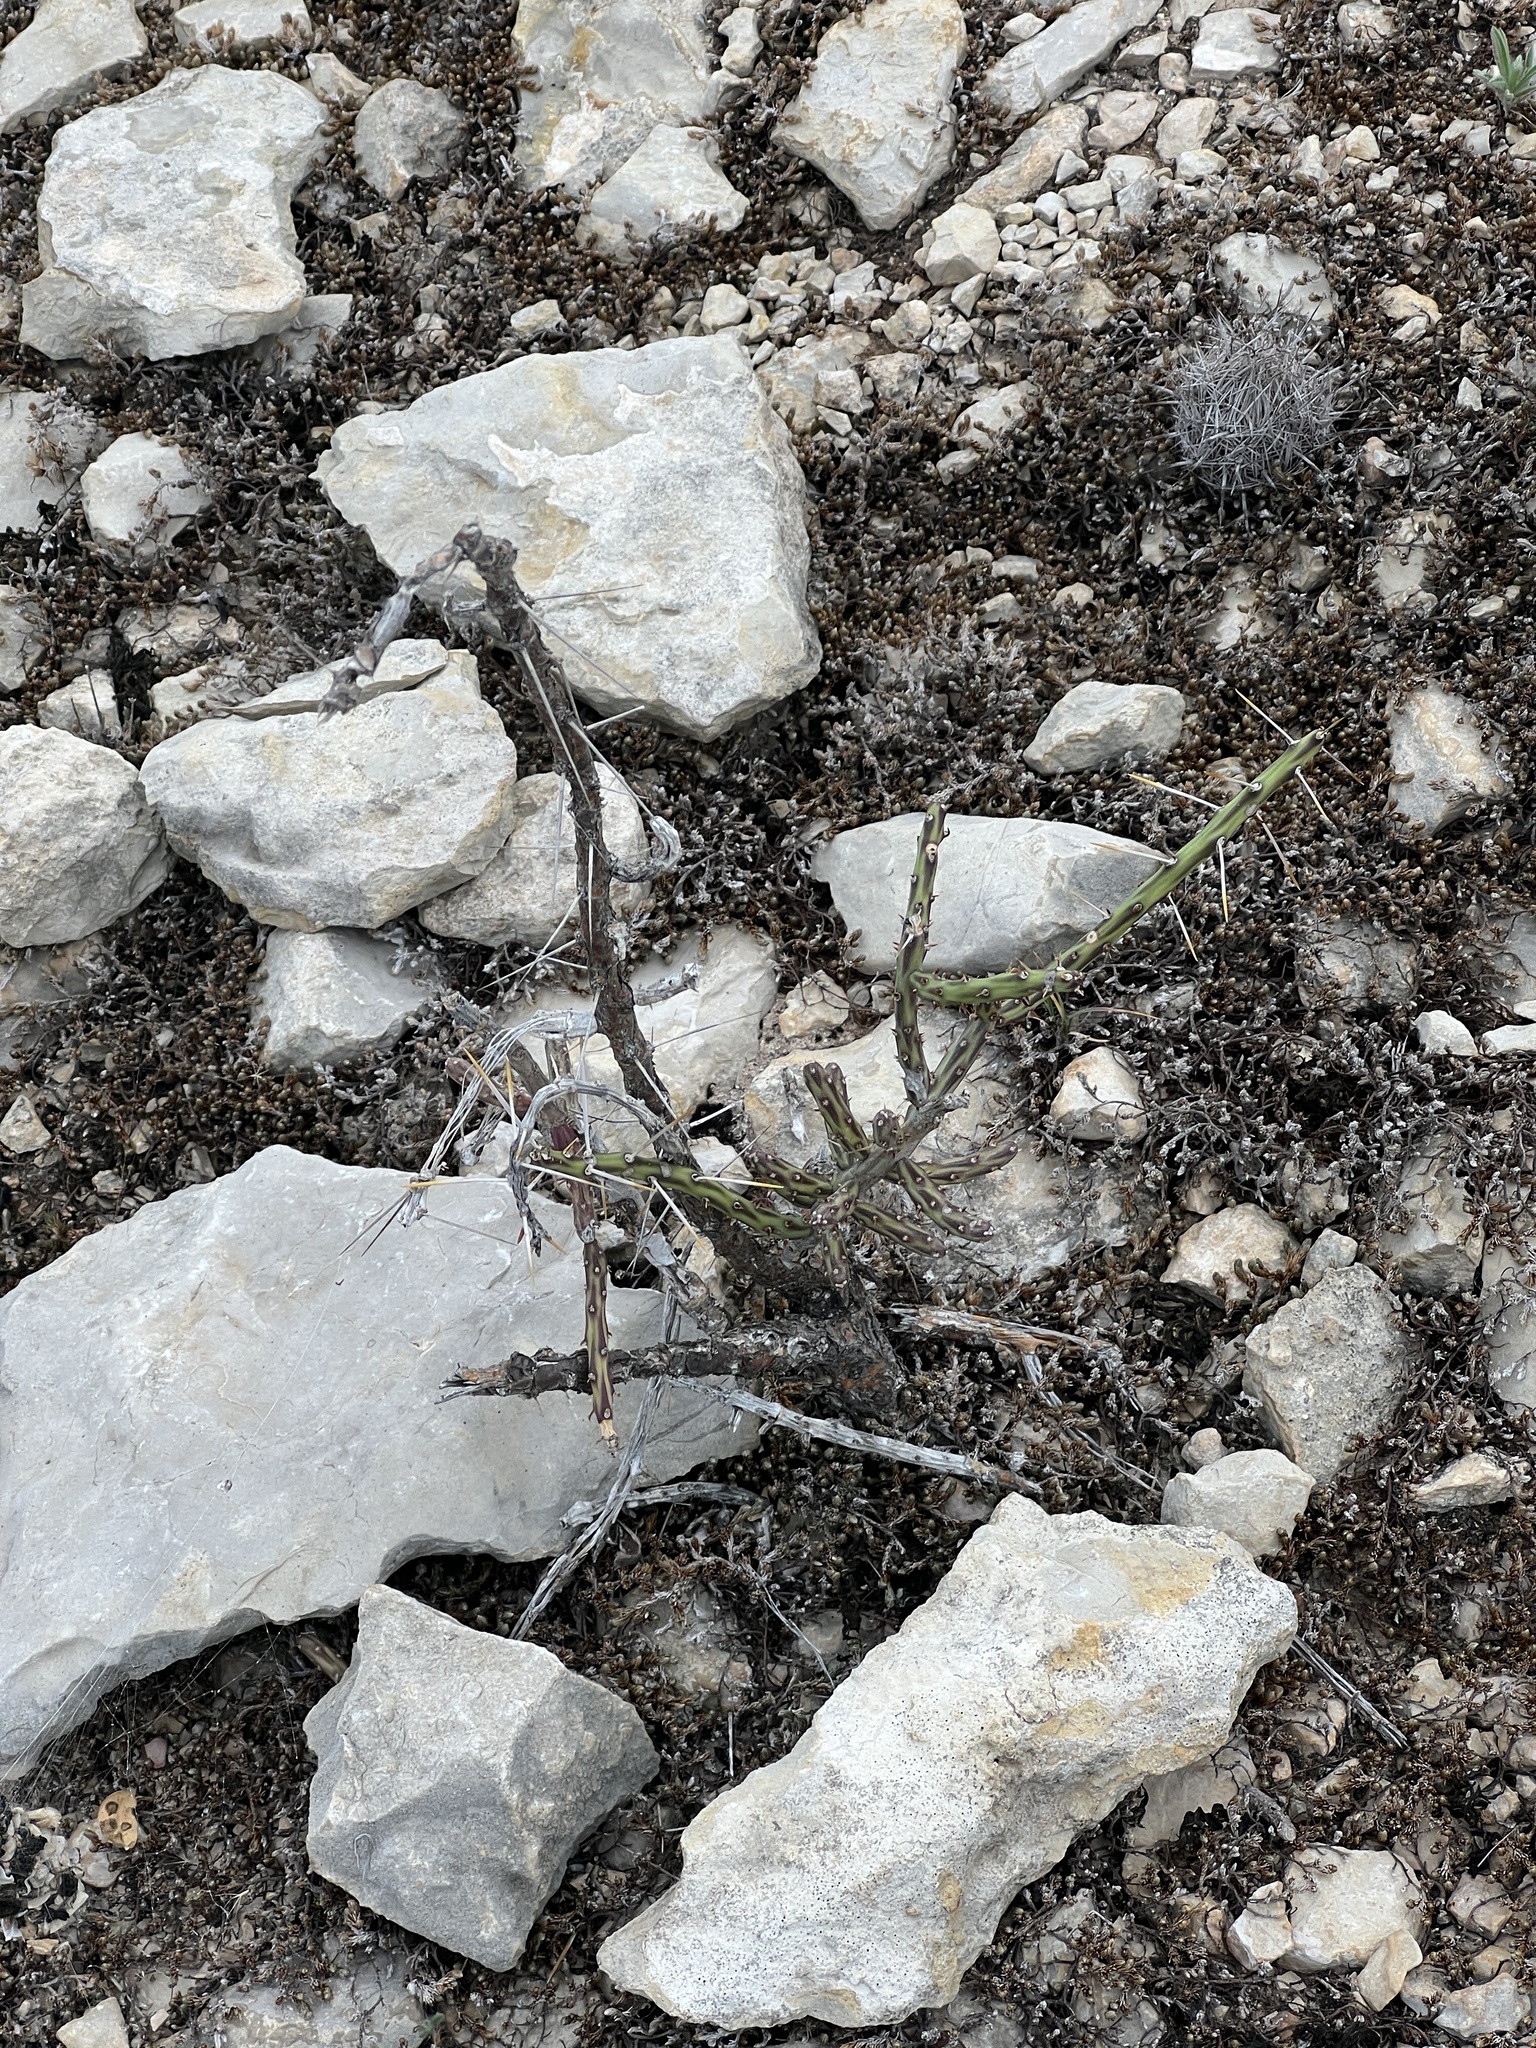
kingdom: Plantae
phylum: Tracheophyta
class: Magnoliopsida
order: Caryophyllales
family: Cactaceae
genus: Cylindropuntia
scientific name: Cylindropuntia leptocaulis
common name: Christmas cactus
